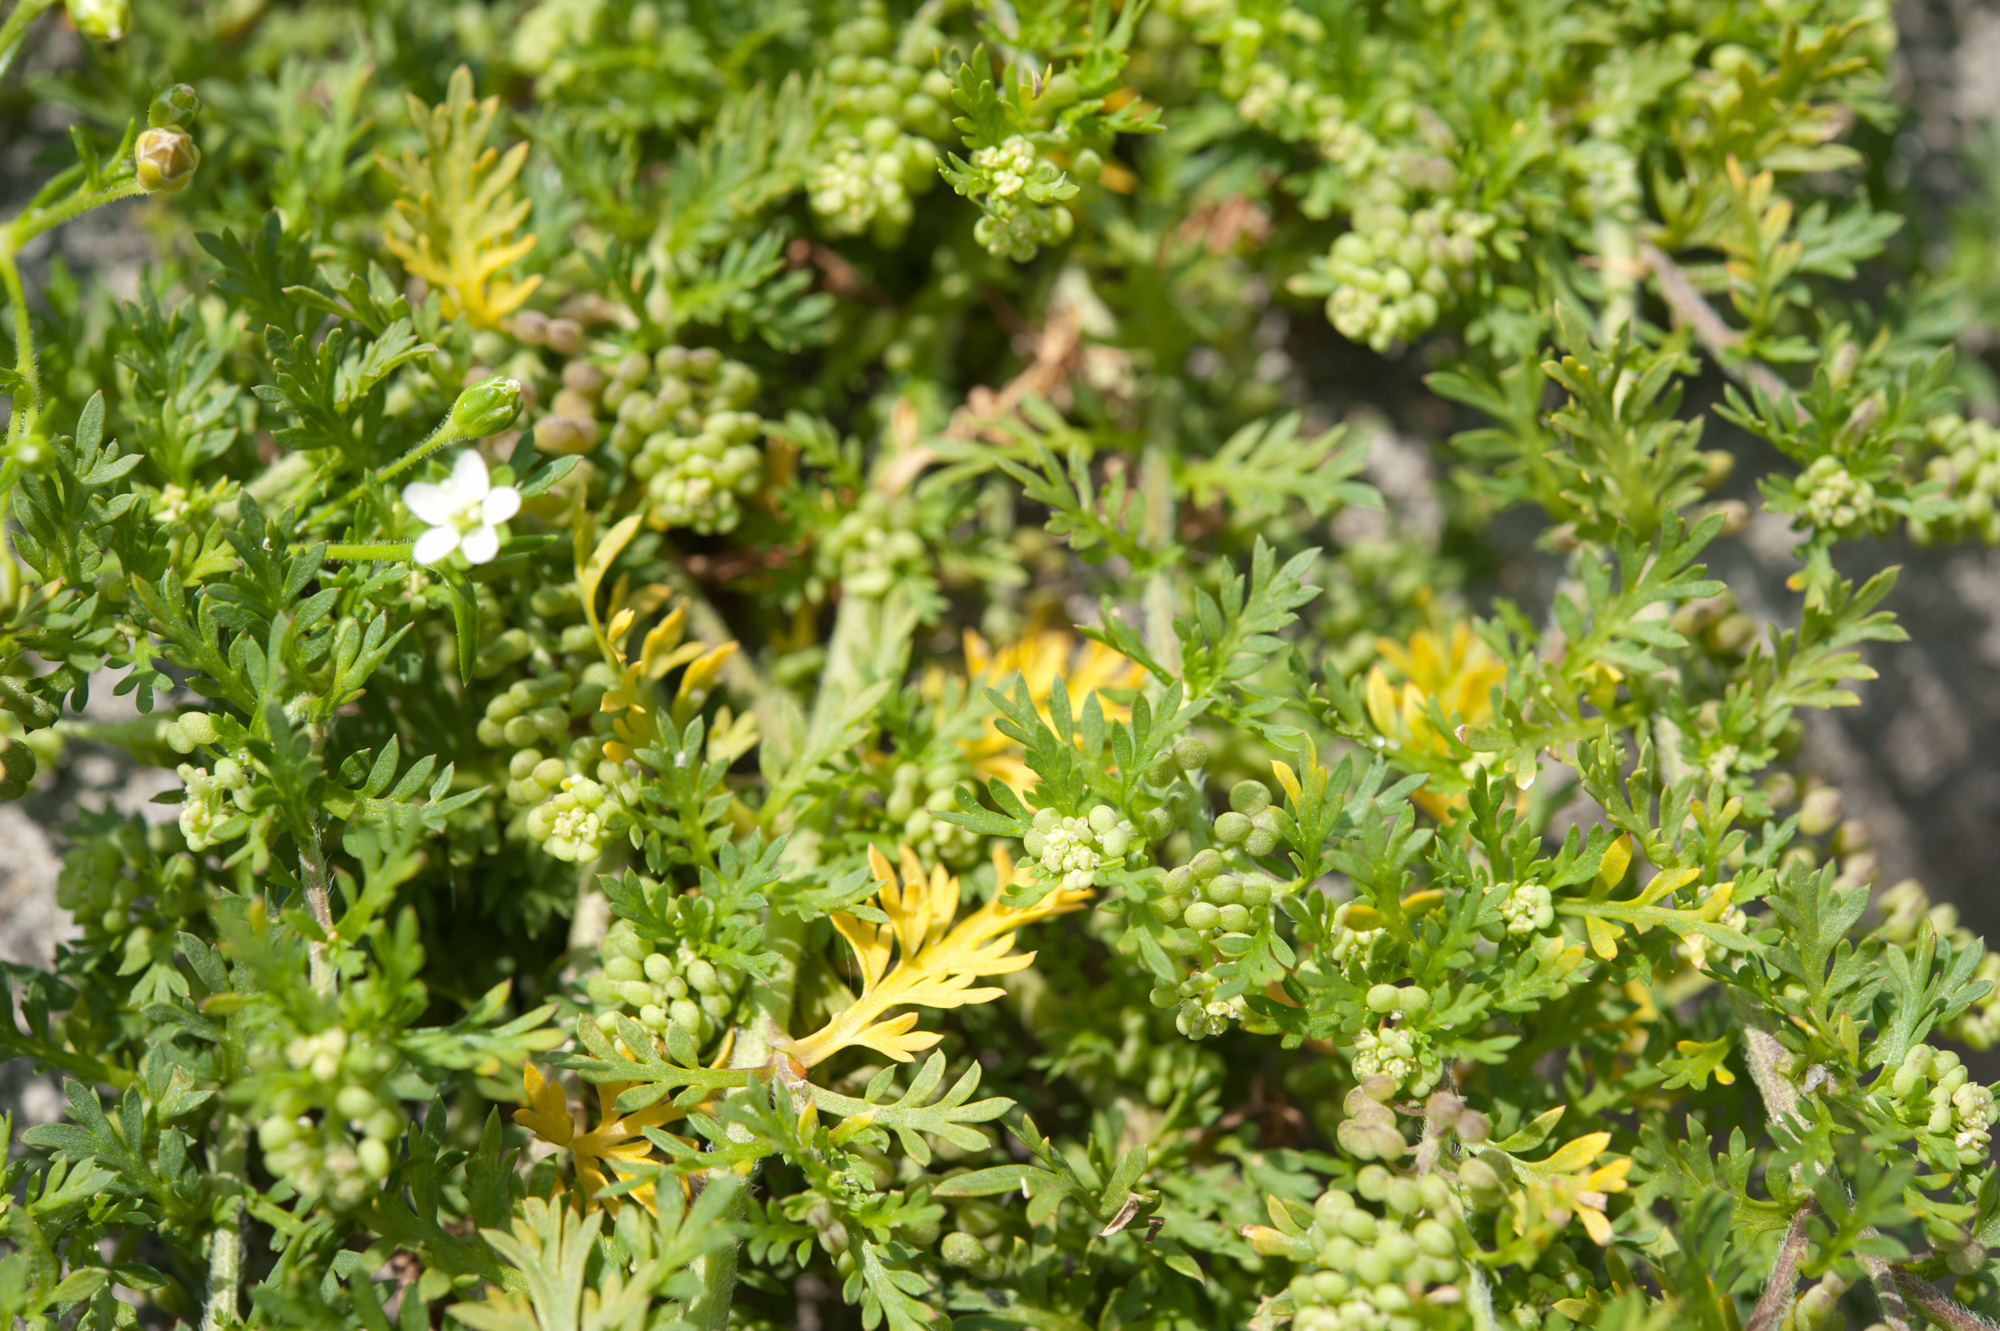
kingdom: Plantae
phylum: Tracheophyta
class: Magnoliopsida
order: Brassicales
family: Brassicaceae
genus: Lepidium
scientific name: Lepidium didymum
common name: Lesser swinecress
